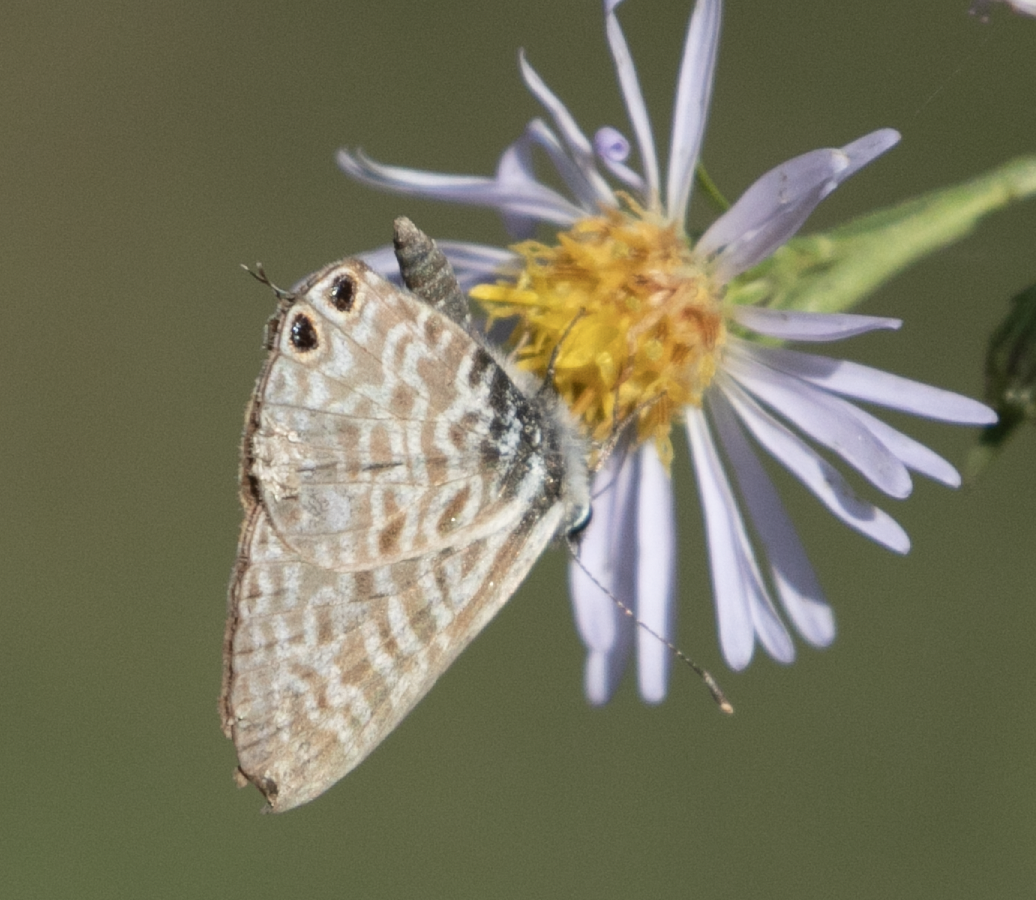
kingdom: Animalia
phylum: Arthropoda
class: Insecta
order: Lepidoptera
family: Lycaenidae
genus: Leptotes
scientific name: Leptotes pirithous
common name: Lang's short-tailed blue
